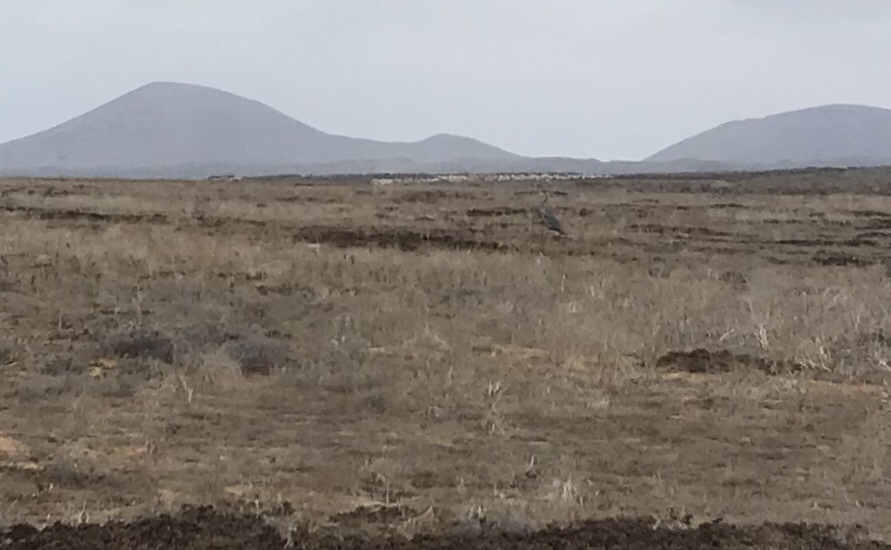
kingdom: Animalia
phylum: Chordata
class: Aves
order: Pelecaniformes
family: Ardeidae
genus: Ardea
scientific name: Ardea herodias
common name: Great blue heron
